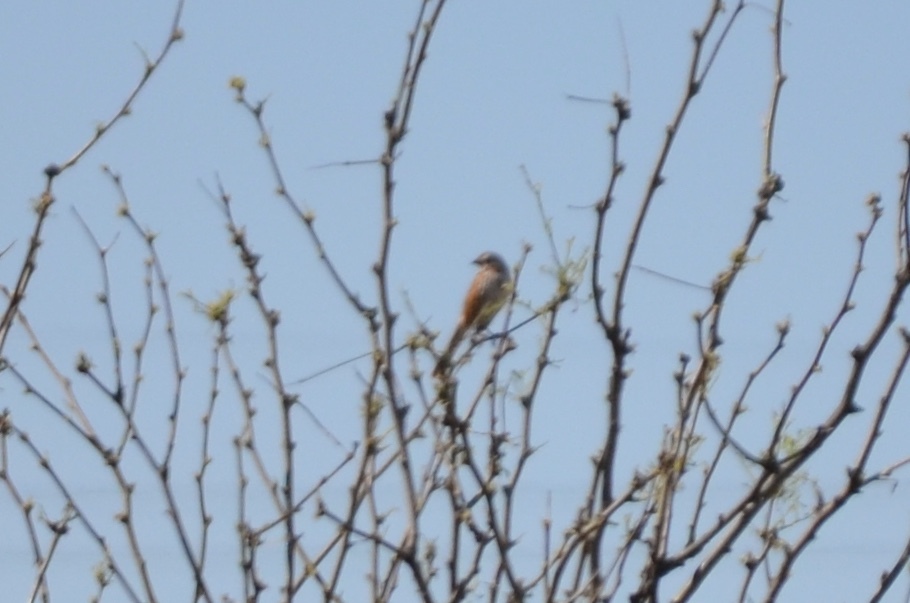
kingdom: Animalia
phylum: Chordata
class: Aves
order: Passeriformes
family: Passerellidae
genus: Melospiza
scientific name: Melospiza melodia
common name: Song sparrow
